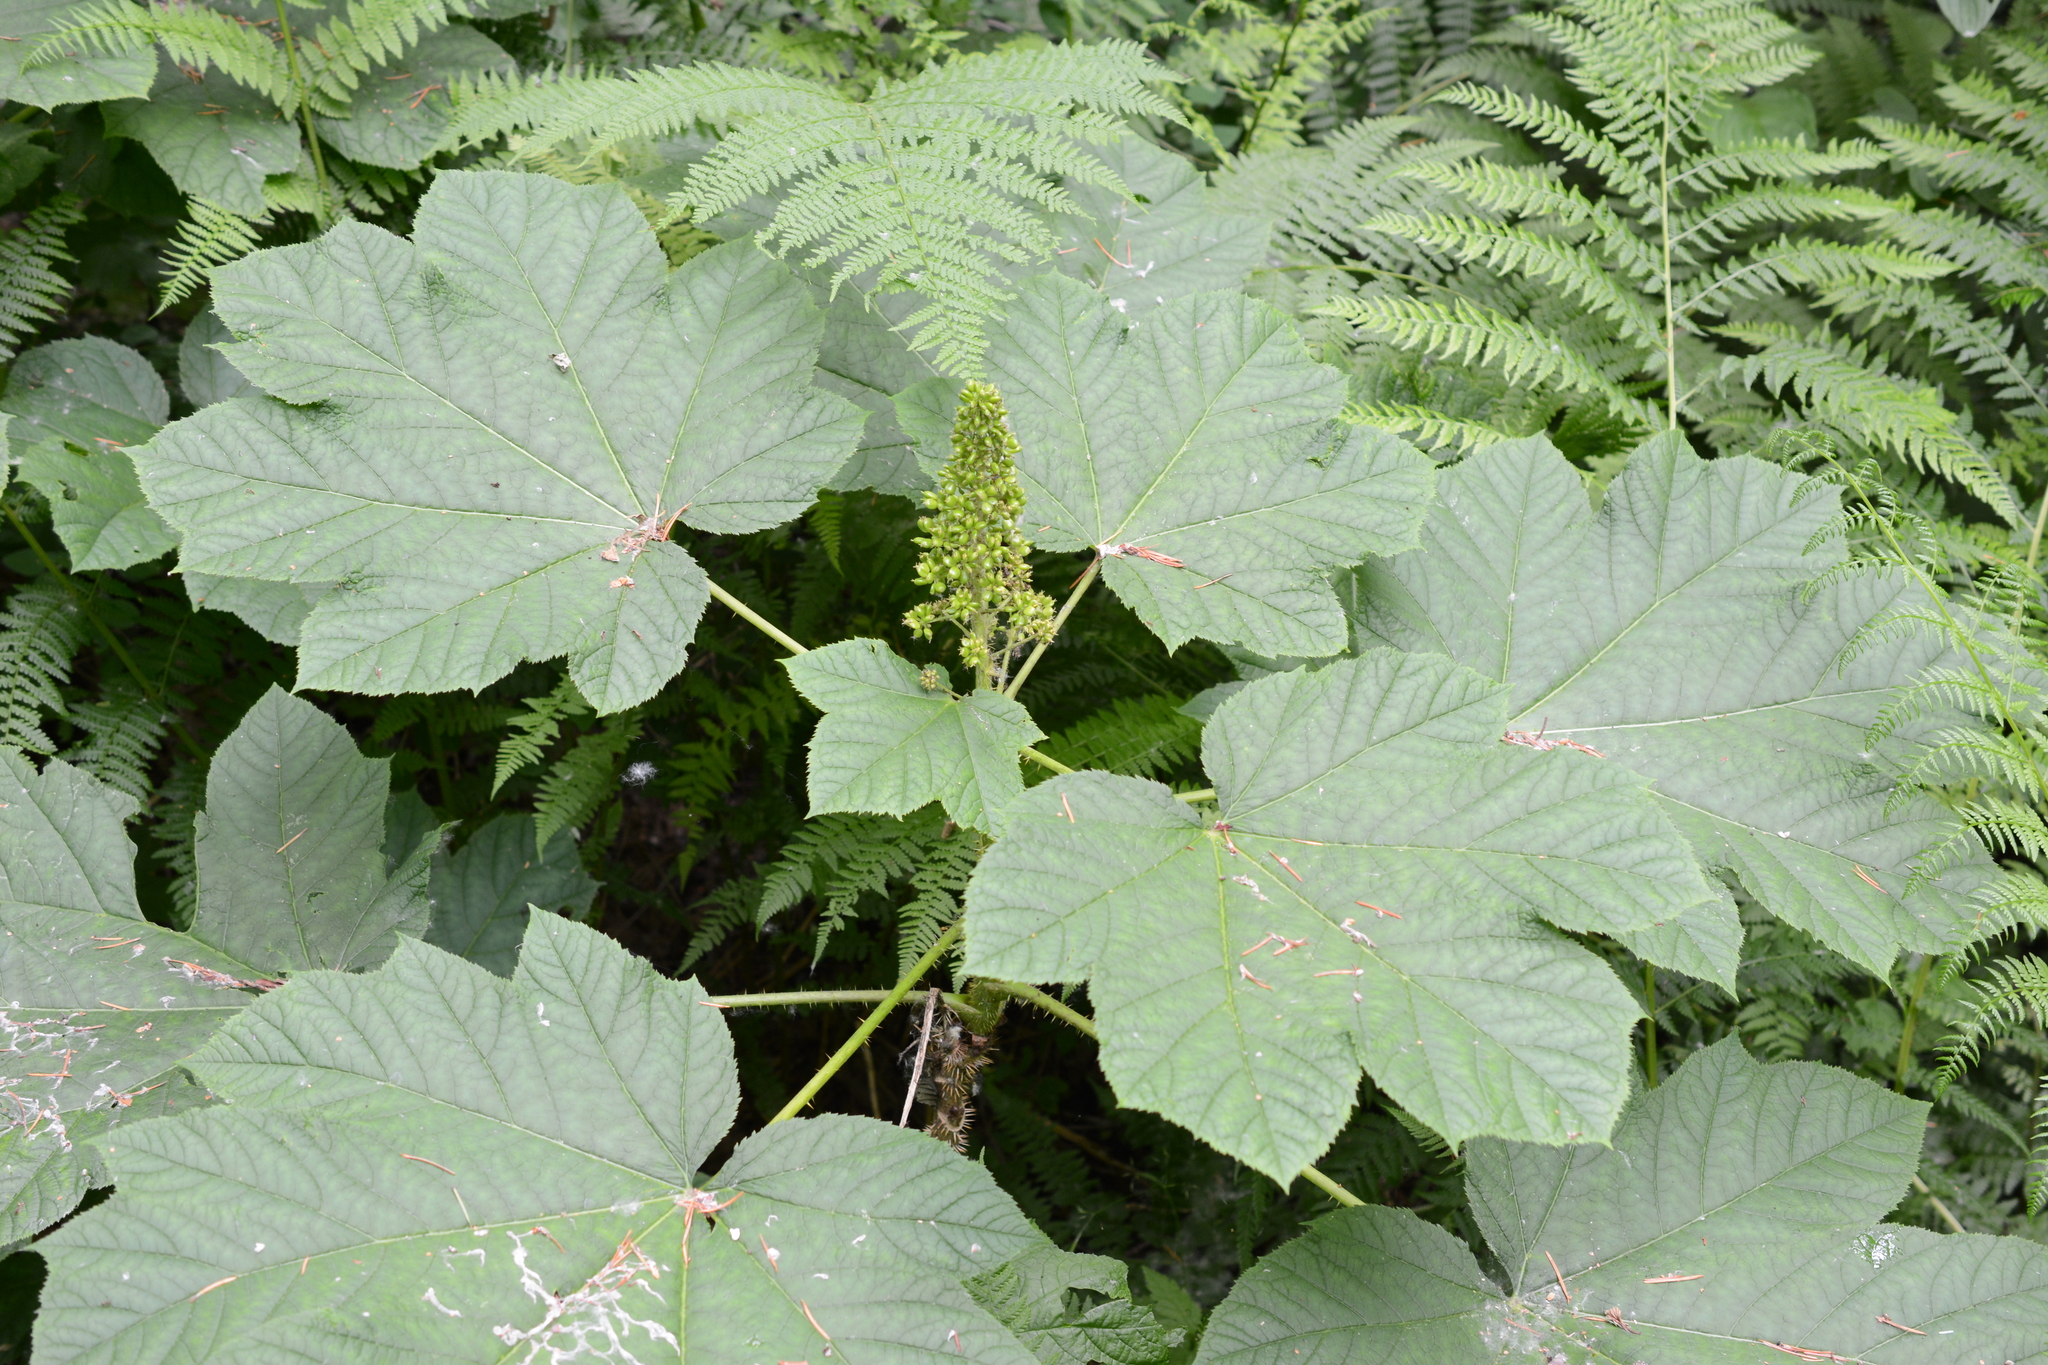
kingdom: Plantae
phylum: Tracheophyta
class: Magnoliopsida
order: Apiales
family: Araliaceae
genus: Oplopanax
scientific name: Oplopanax horridus
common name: Devil's walking-stick
